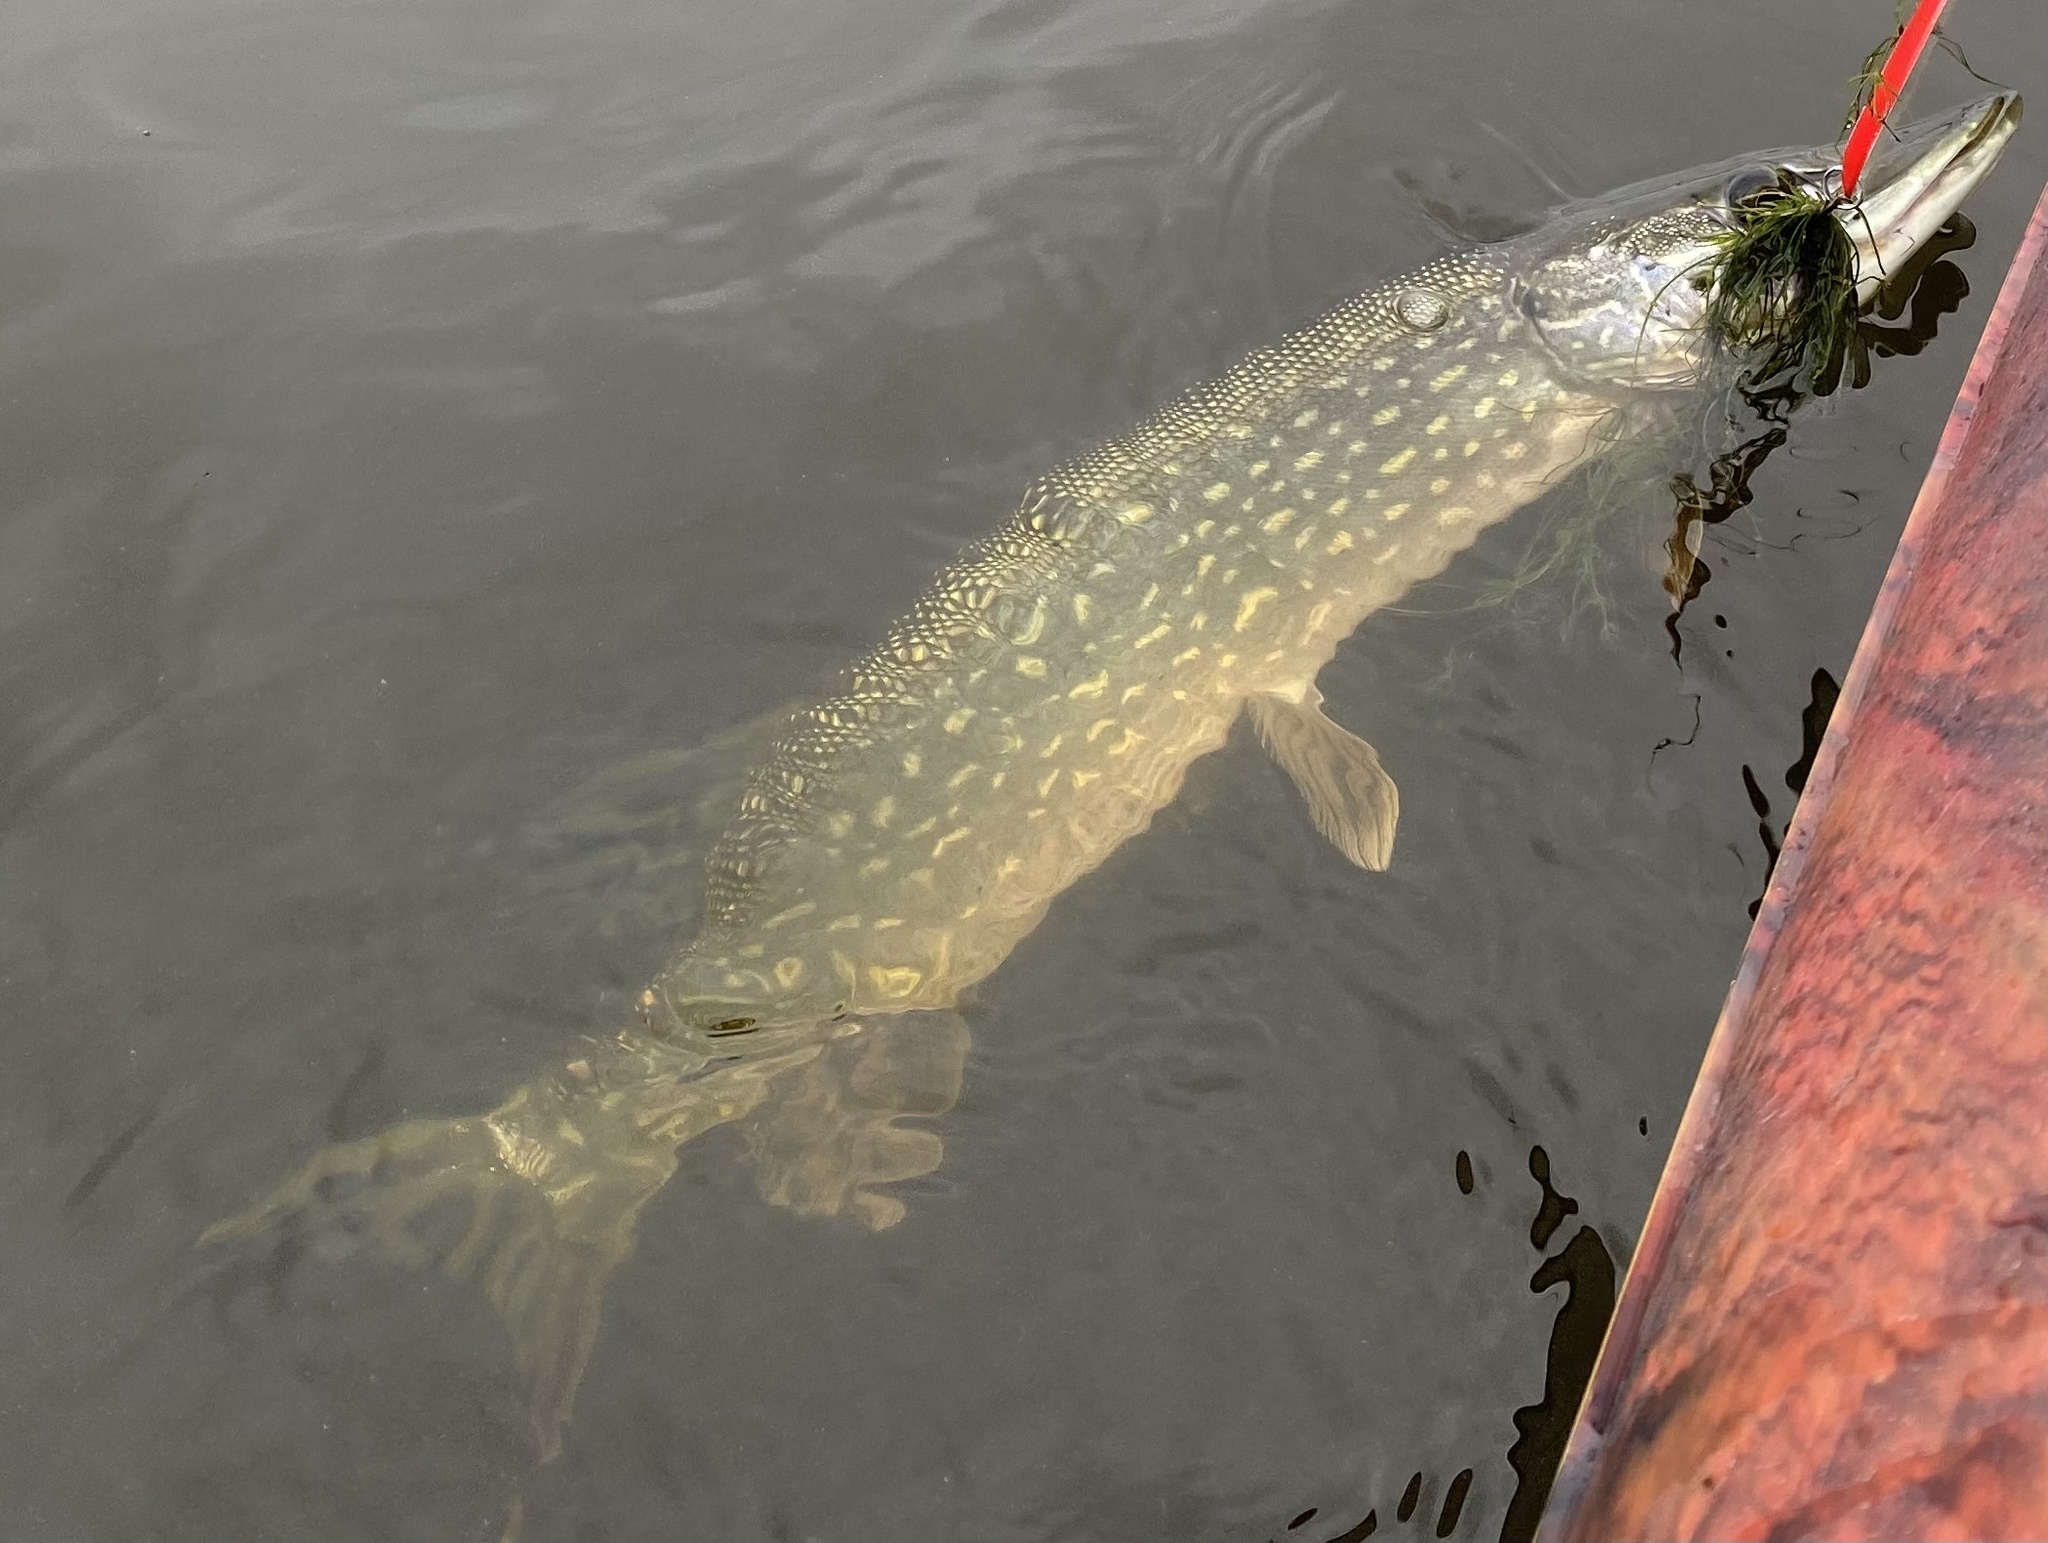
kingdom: Animalia
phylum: Chordata
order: Esociformes
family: Esocidae
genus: Esox
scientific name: Esox lucius
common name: Northern pike
